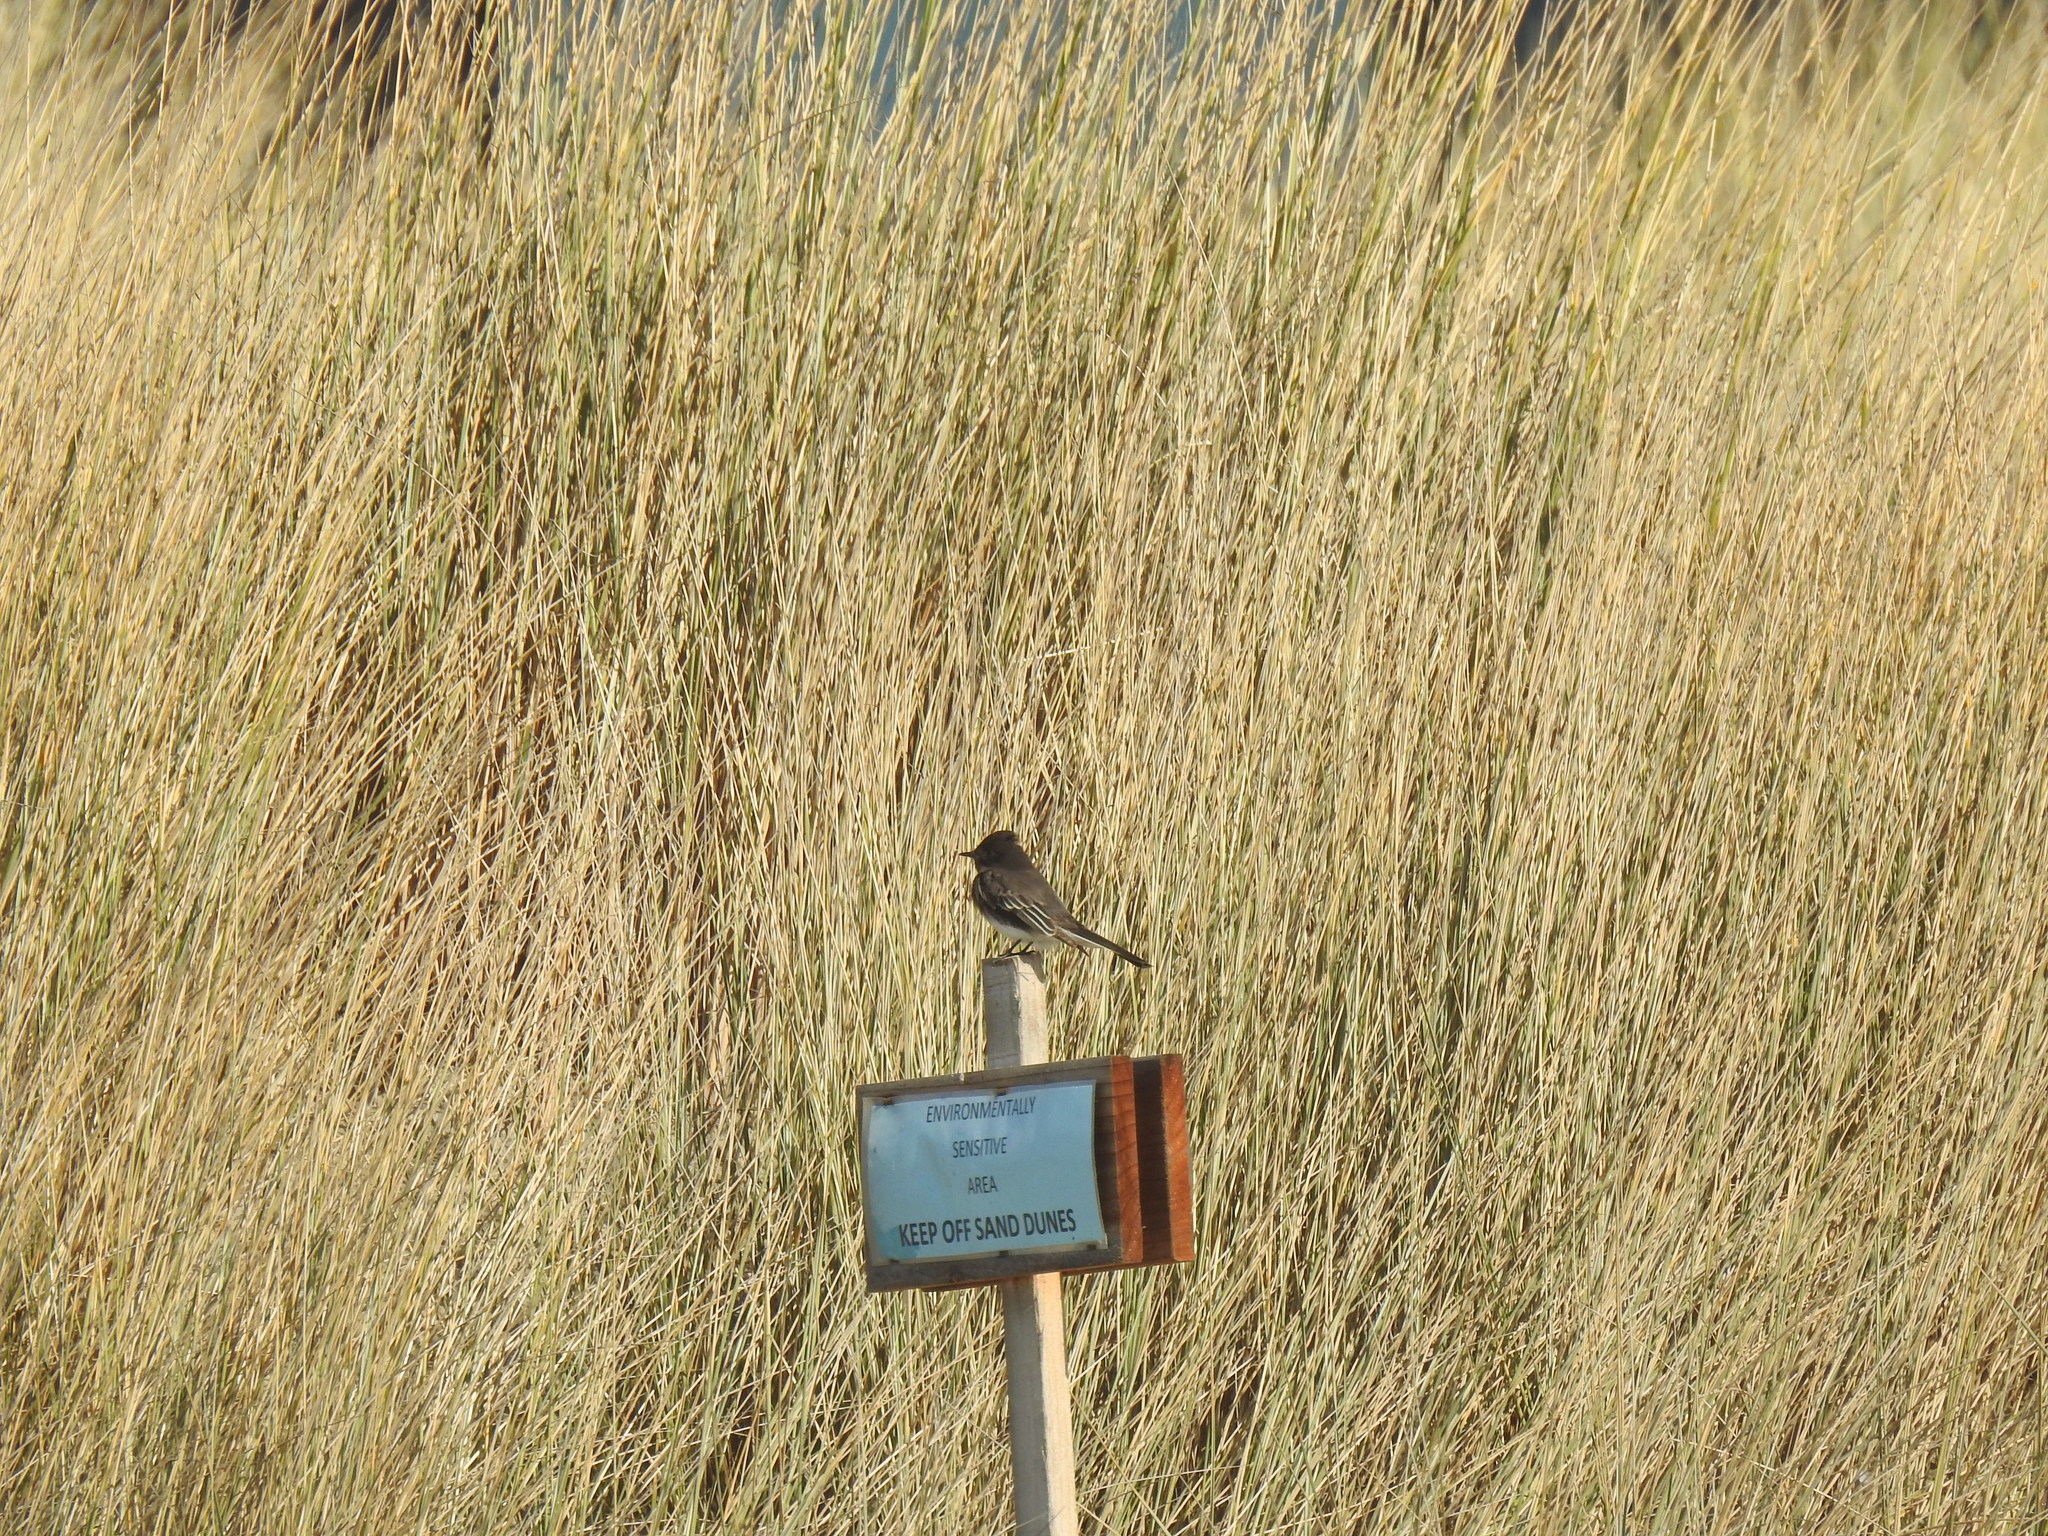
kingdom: Animalia
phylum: Chordata
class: Aves
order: Passeriformes
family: Tyrannidae
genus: Sayornis
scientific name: Sayornis nigricans
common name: Black phoebe
